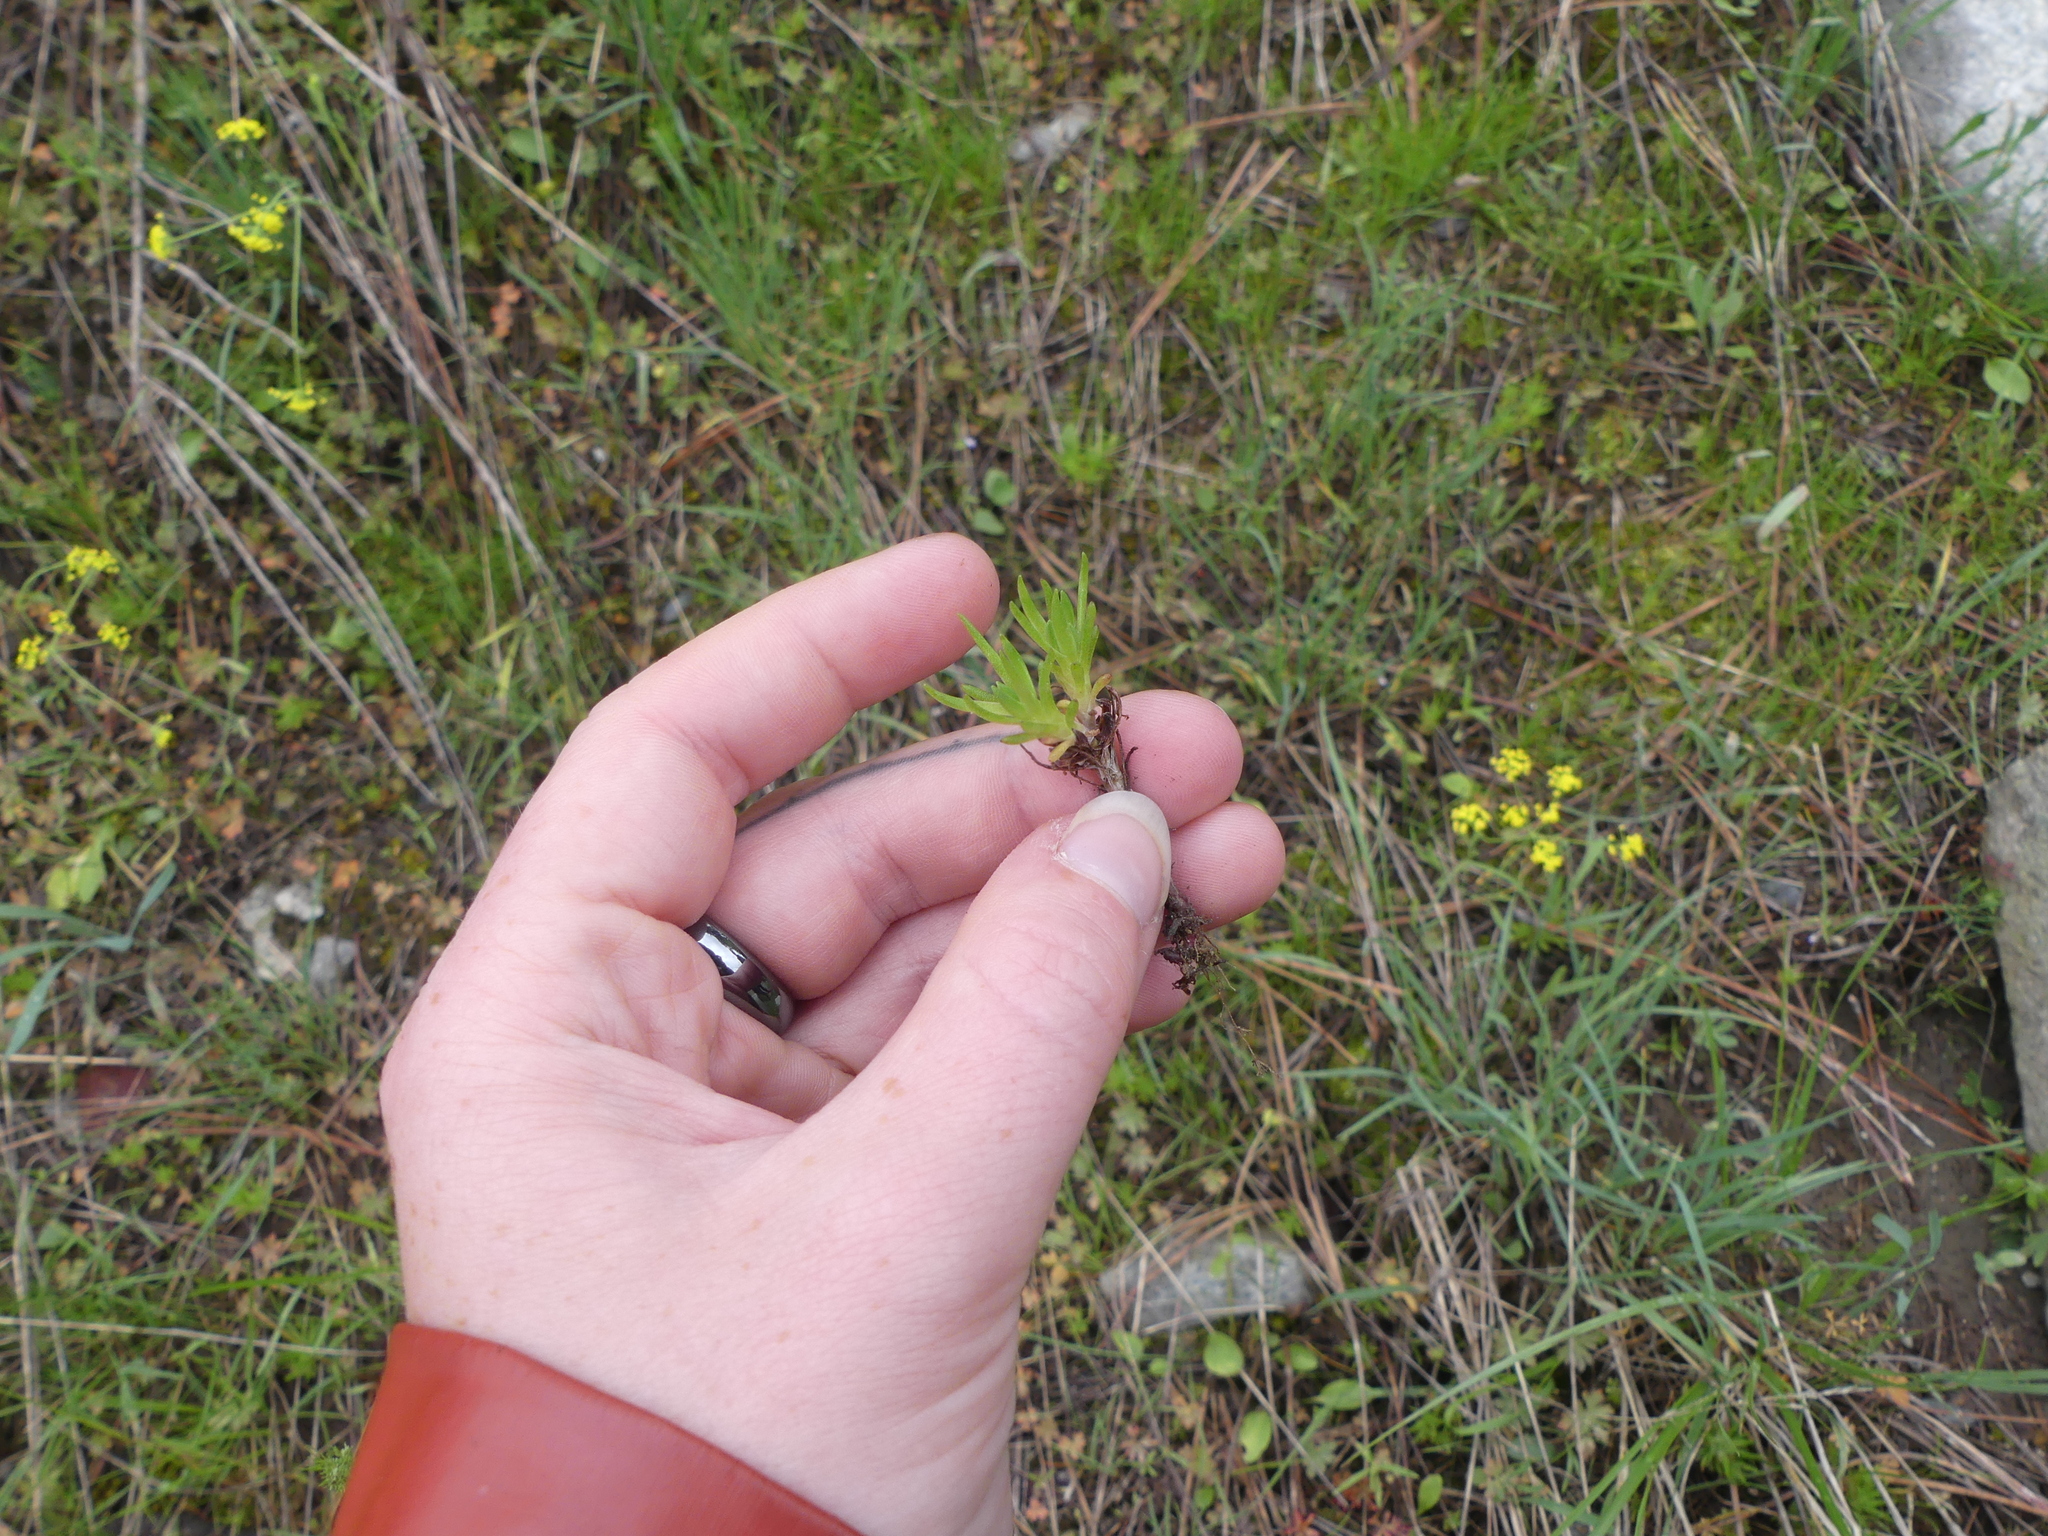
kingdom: Plantae
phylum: Tracheophyta
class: Magnoliopsida
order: Saxifragales
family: Crassulaceae
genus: Sedum
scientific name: Sedum stenopetalum
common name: Narrow-petaled stonecrop
